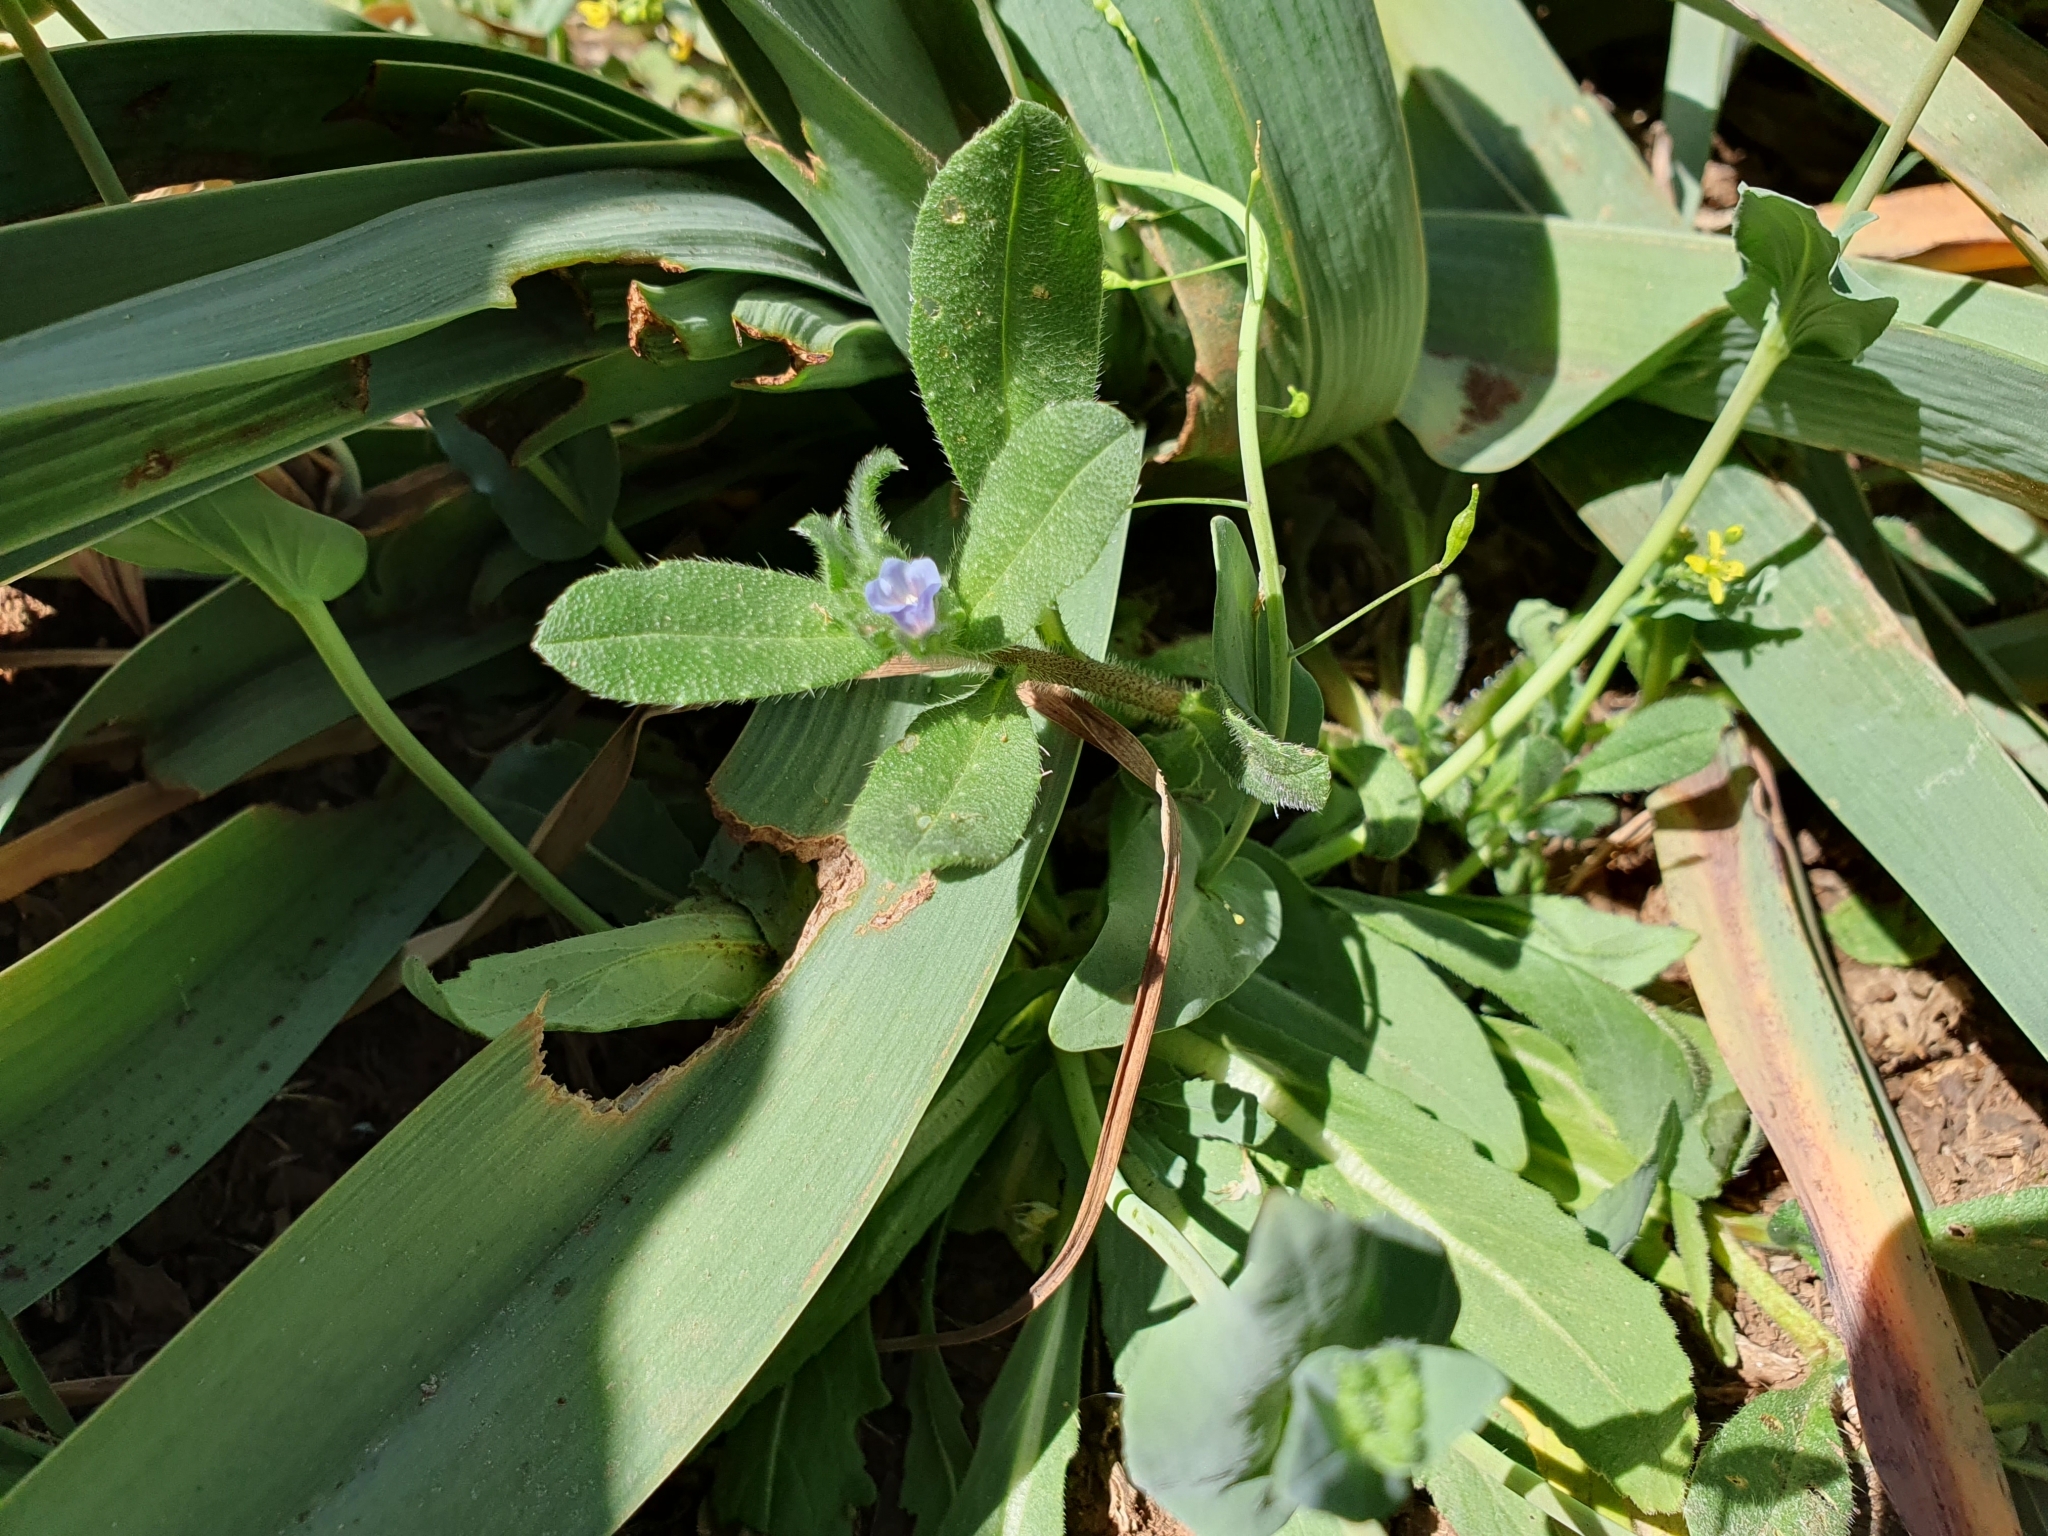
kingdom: Plantae
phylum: Tracheophyta
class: Magnoliopsida
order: Boraginales
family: Boraginaceae
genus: Echium
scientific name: Echium parviflorum
